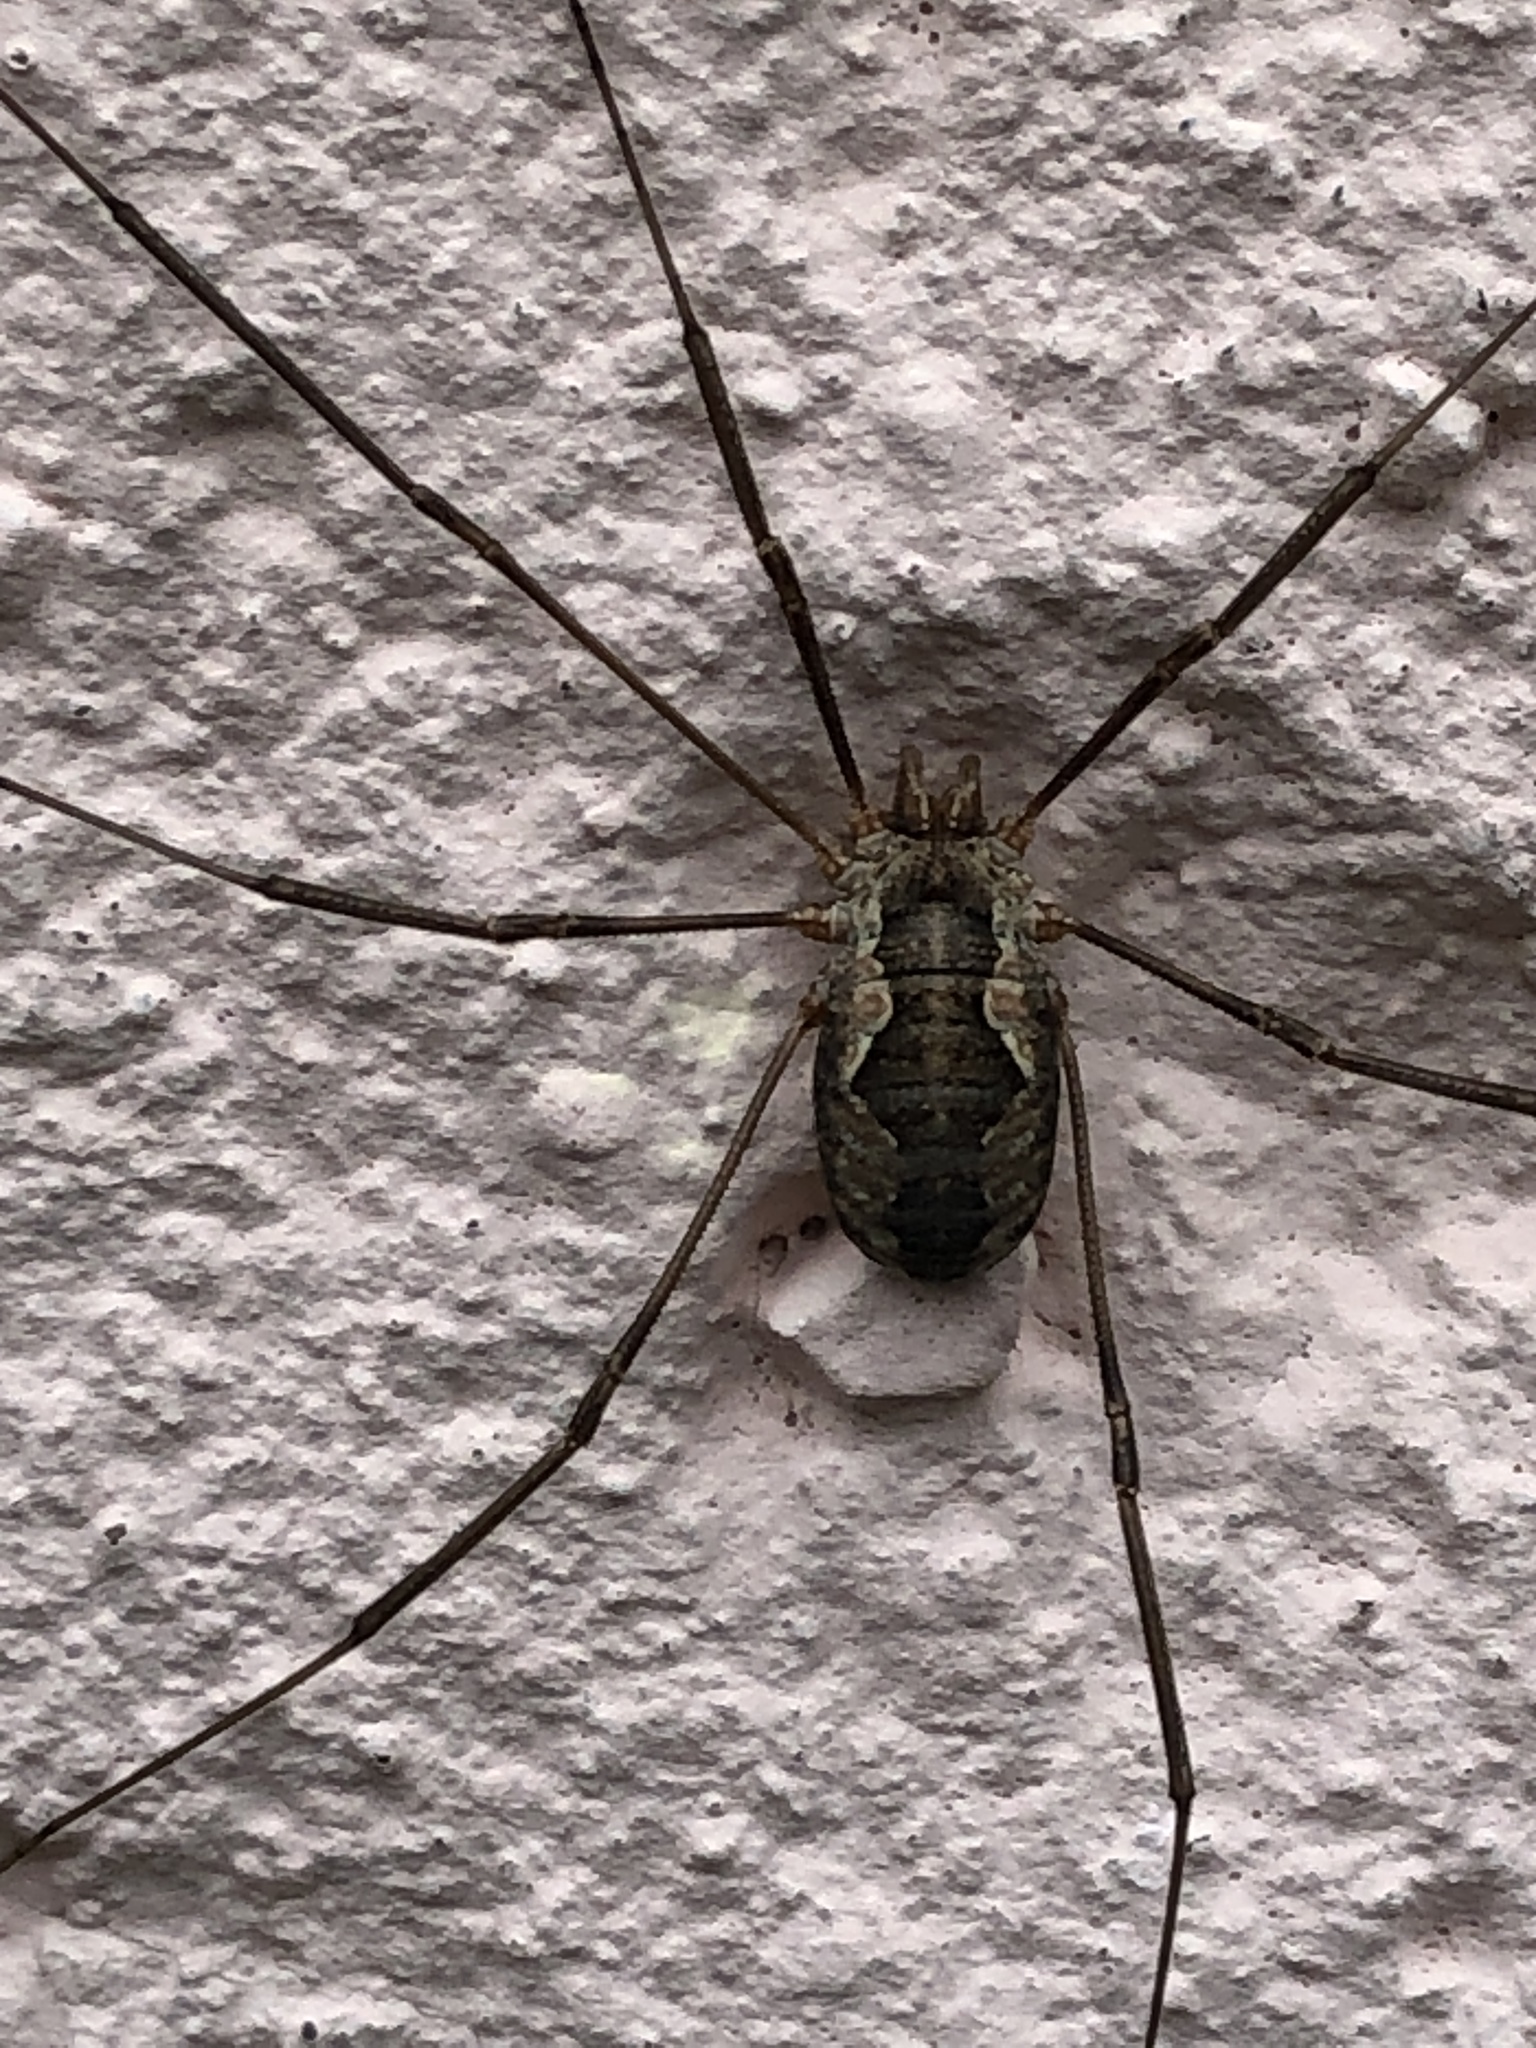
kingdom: Animalia
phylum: Arthropoda
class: Arachnida
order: Opiliones
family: Phalangiidae
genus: Phalangium
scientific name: Phalangium opilio
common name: Daddy longleg
